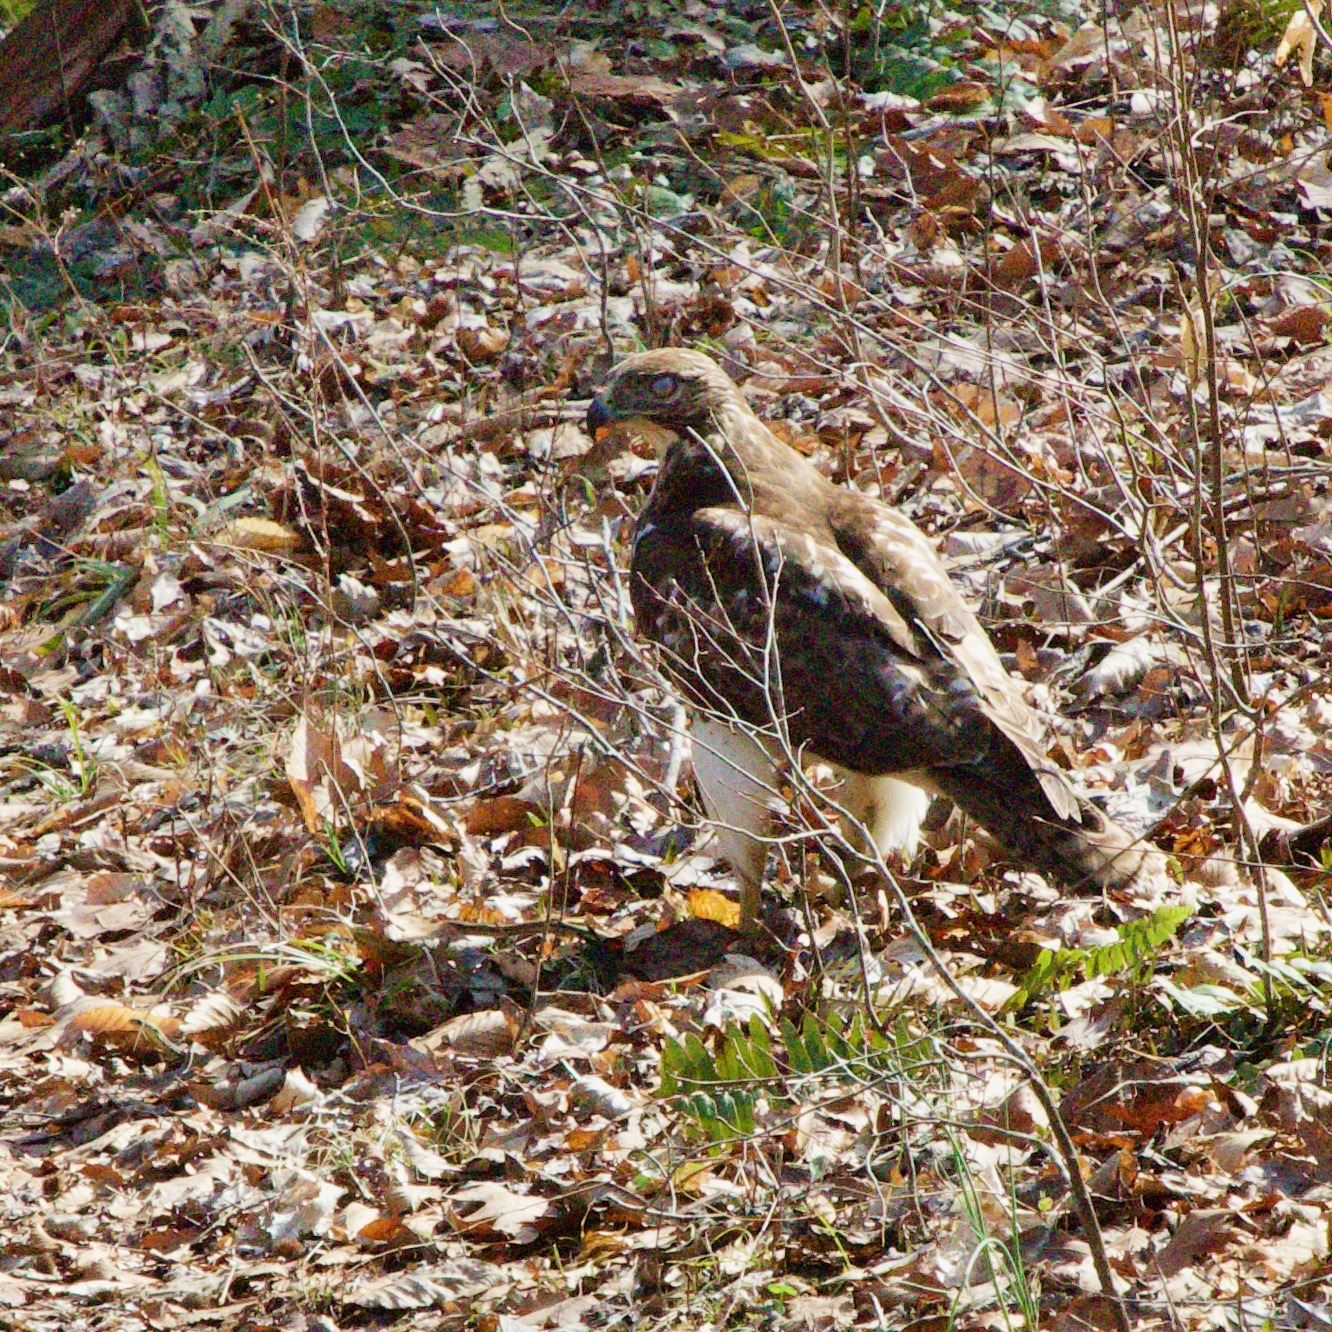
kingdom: Animalia
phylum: Chordata
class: Aves
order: Accipitriformes
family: Accipitridae
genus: Buteo
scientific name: Buteo jamaicensis
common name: Red-tailed hawk
